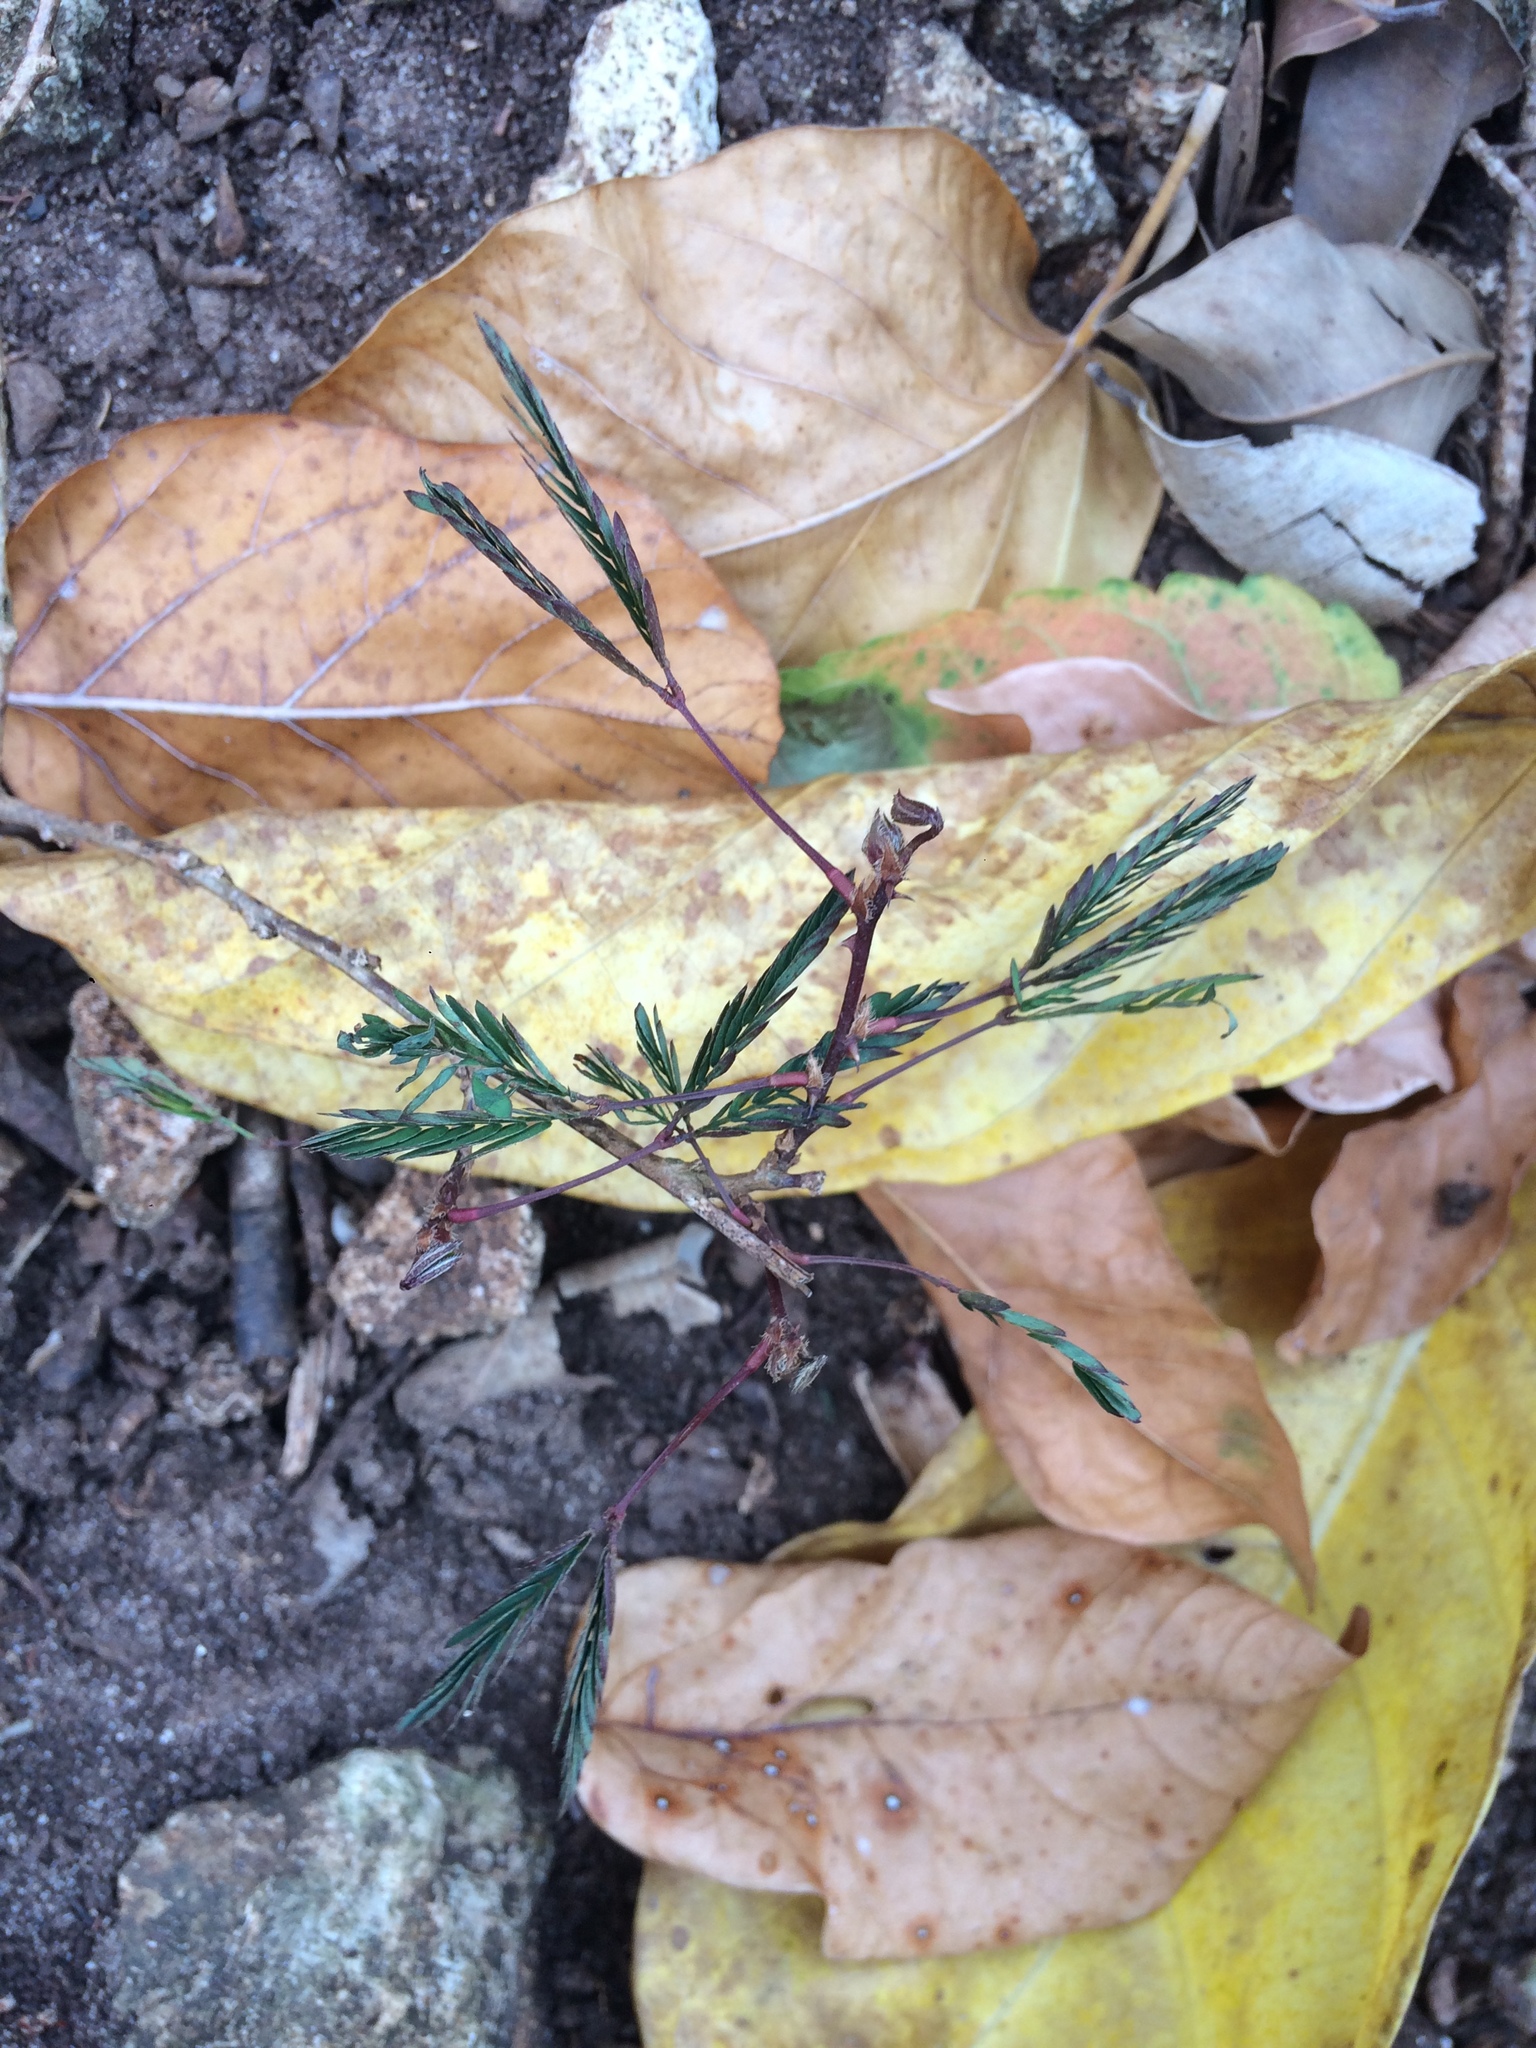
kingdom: Plantae
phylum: Tracheophyta
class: Magnoliopsida
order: Fabales
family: Fabaceae
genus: Mimosa
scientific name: Mimosa pudica
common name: Sensitive plant
